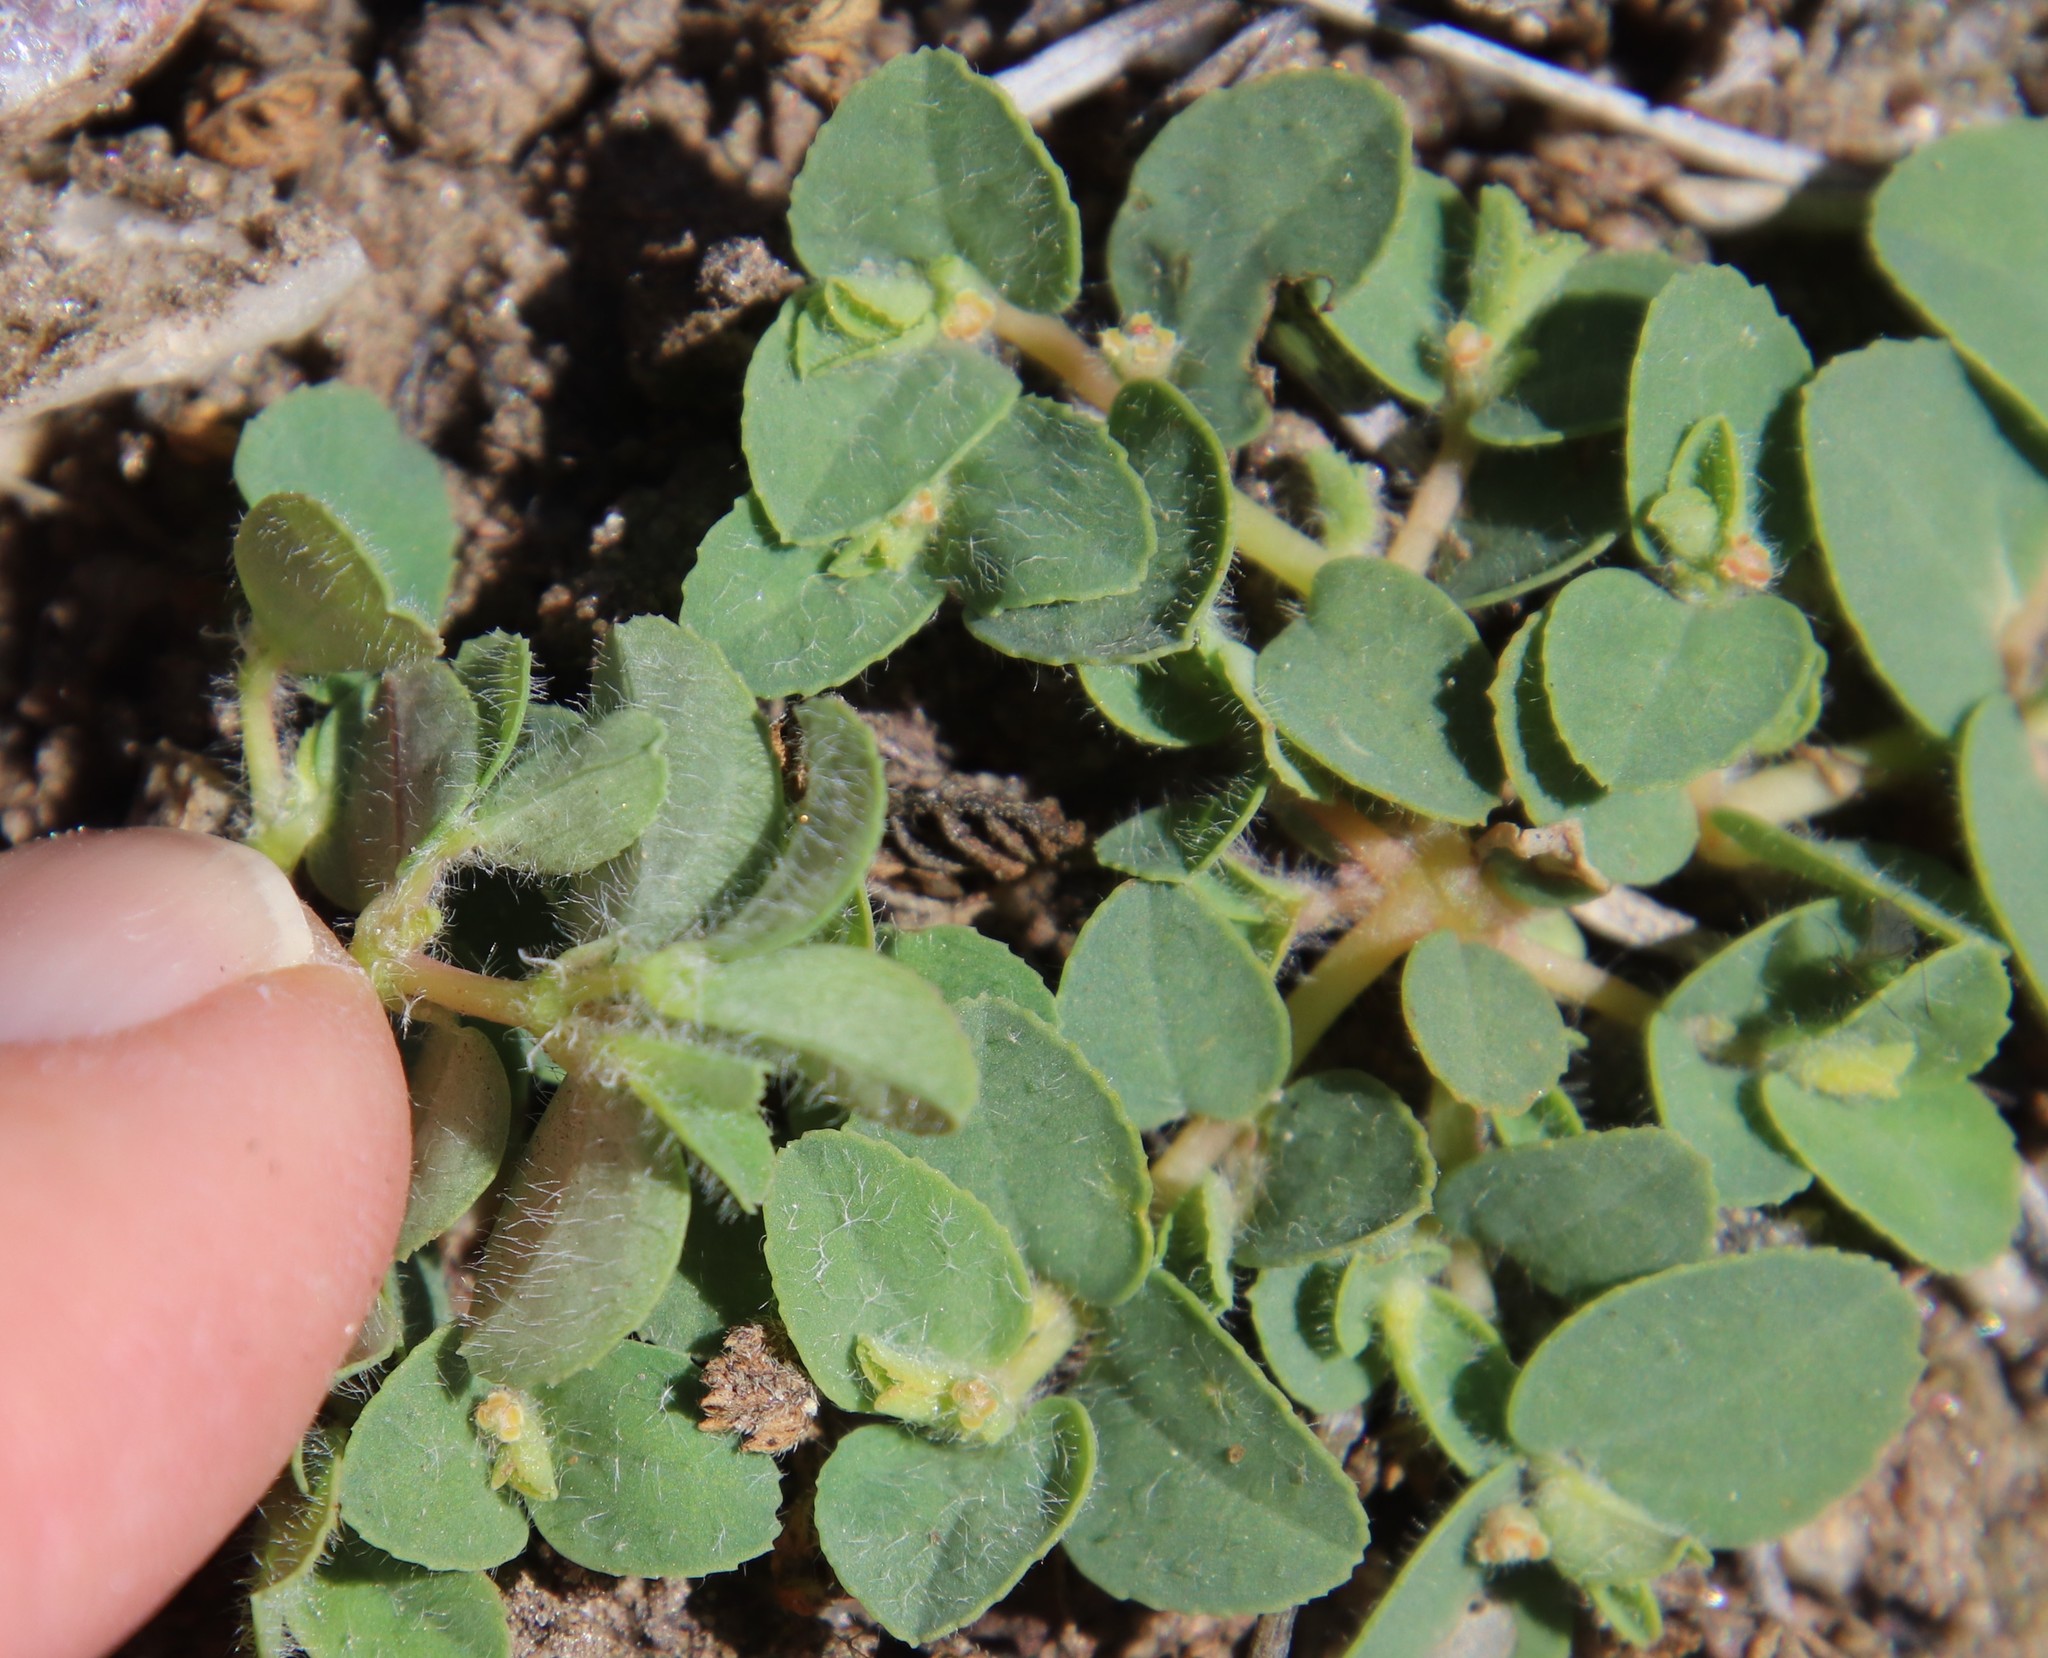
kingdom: Plantae
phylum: Tracheophyta
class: Magnoliopsida
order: Malpighiales
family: Euphorbiaceae
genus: Euphorbia
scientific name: Euphorbia serpillifolia
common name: Thyme-leaf spurge
